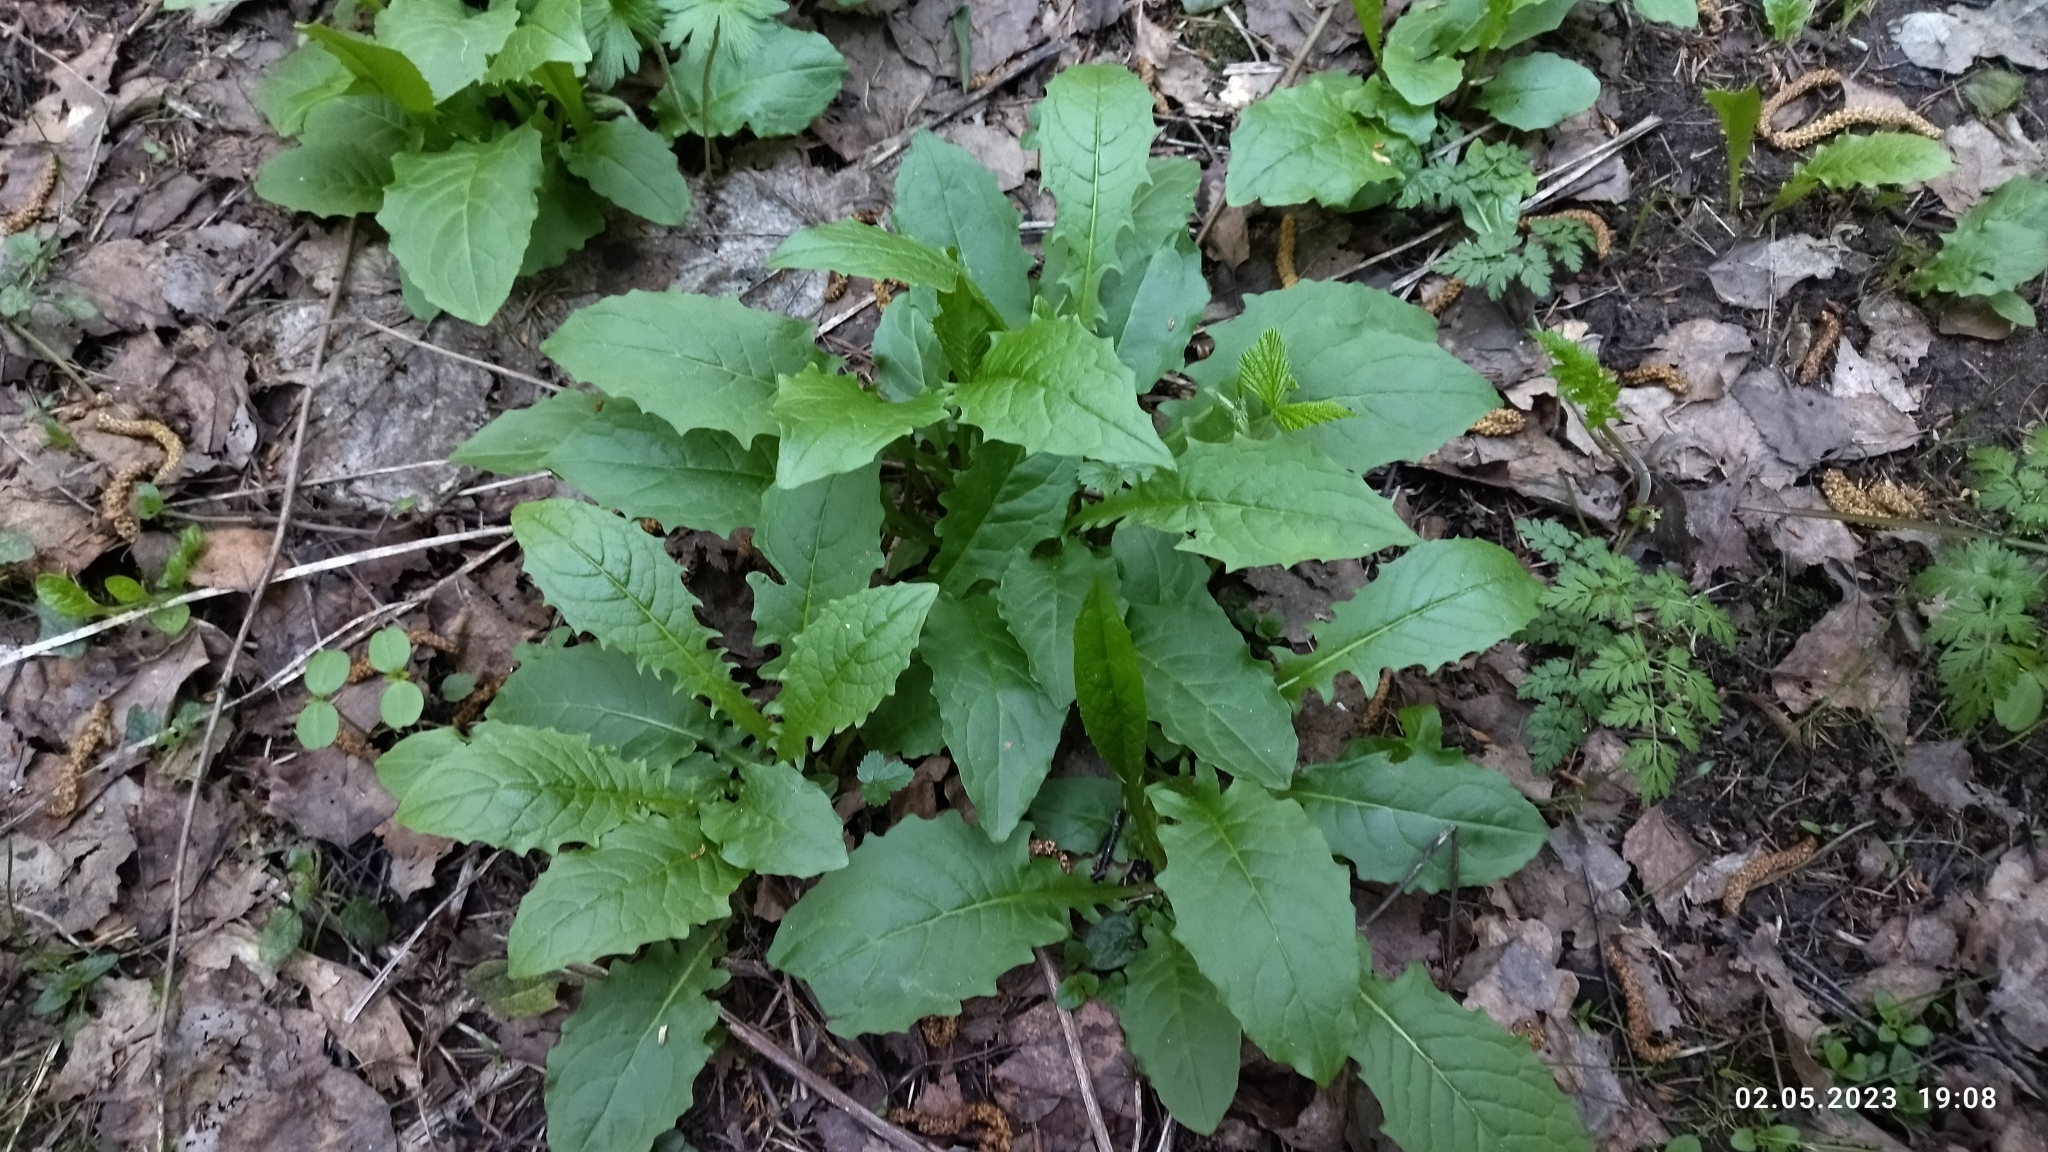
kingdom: Plantae
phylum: Tracheophyta
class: Magnoliopsida
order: Asterales
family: Asteraceae
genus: Crepis
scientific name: Crepis paludosa
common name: Marsh hawk's-beard
